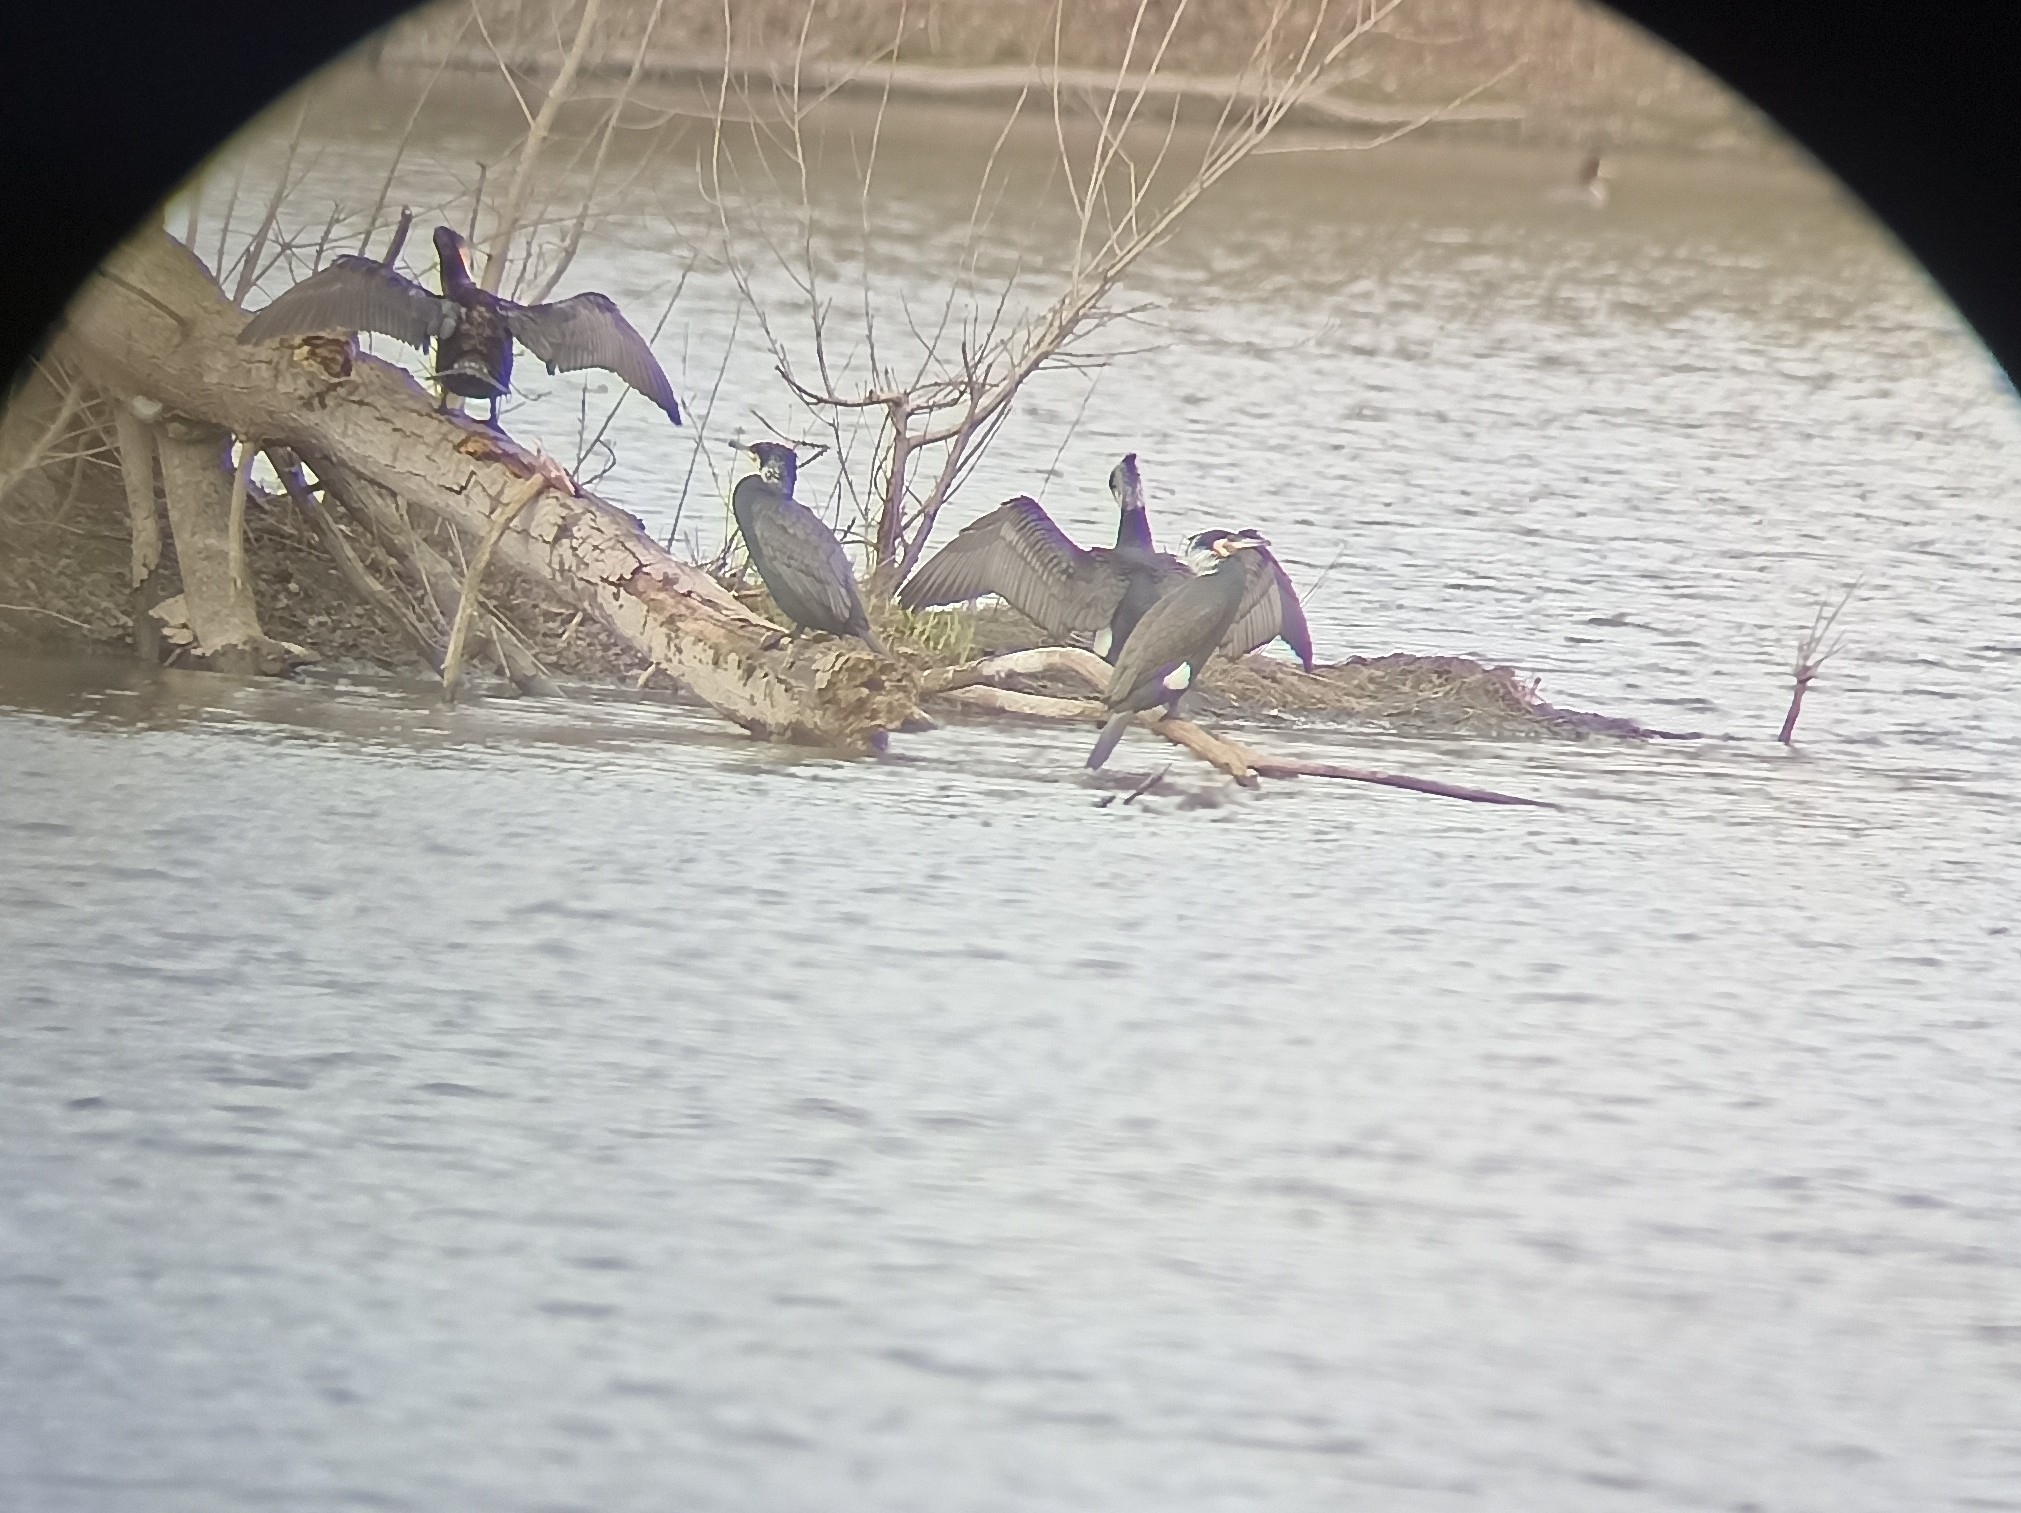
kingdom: Animalia
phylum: Chordata
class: Aves
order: Suliformes
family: Phalacrocoracidae
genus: Phalacrocorax
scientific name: Phalacrocorax carbo
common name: Great cormorant
